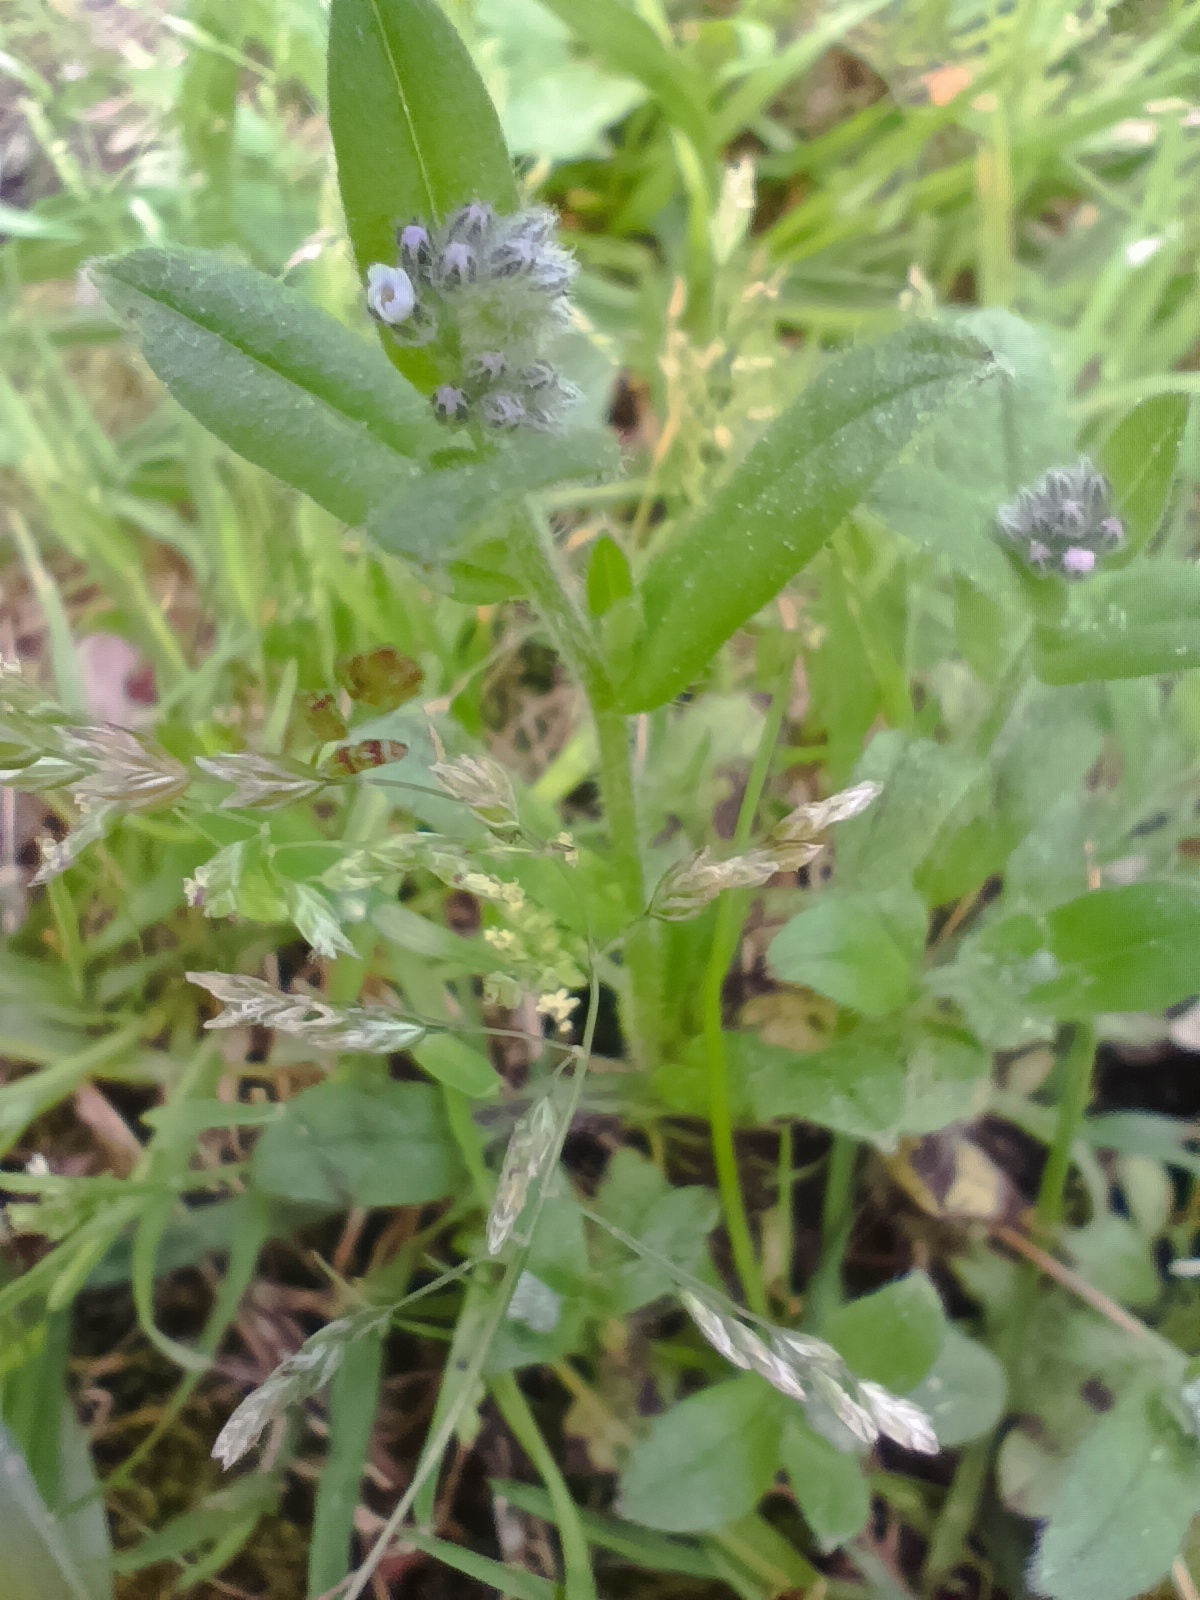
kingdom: Plantae
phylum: Tracheophyta
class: Magnoliopsida
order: Boraginales
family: Boraginaceae
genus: Myosotis
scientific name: Myosotis arvensis
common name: Field forget-me-not
